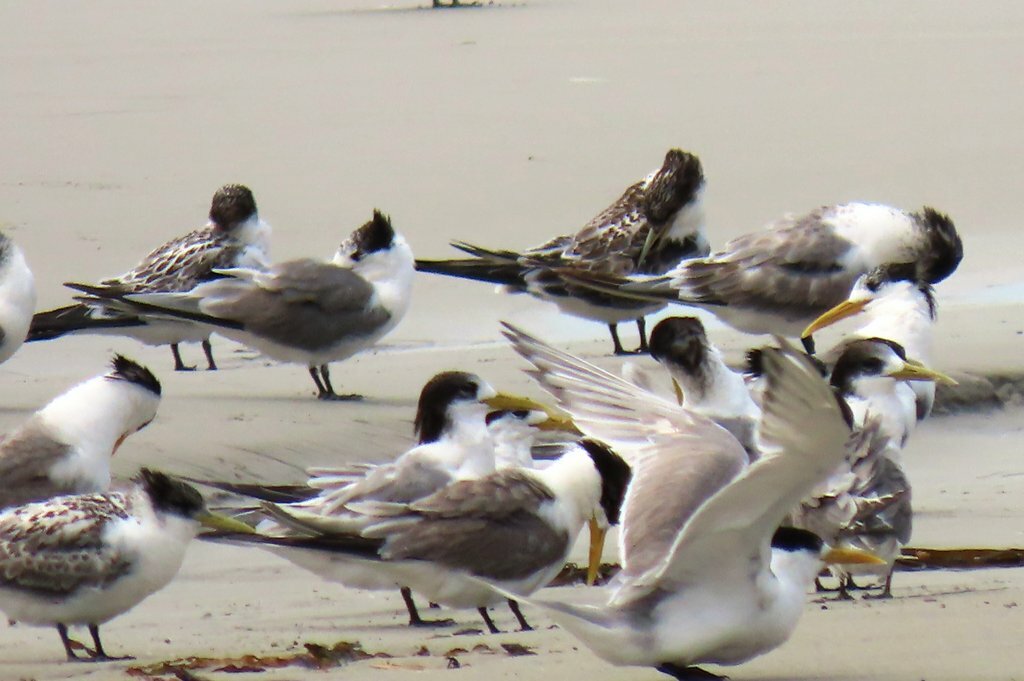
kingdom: Animalia
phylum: Chordata
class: Aves
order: Charadriiformes
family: Laridae
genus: Thalasseus
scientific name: Thalasseus bergii
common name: Greater crested tern
